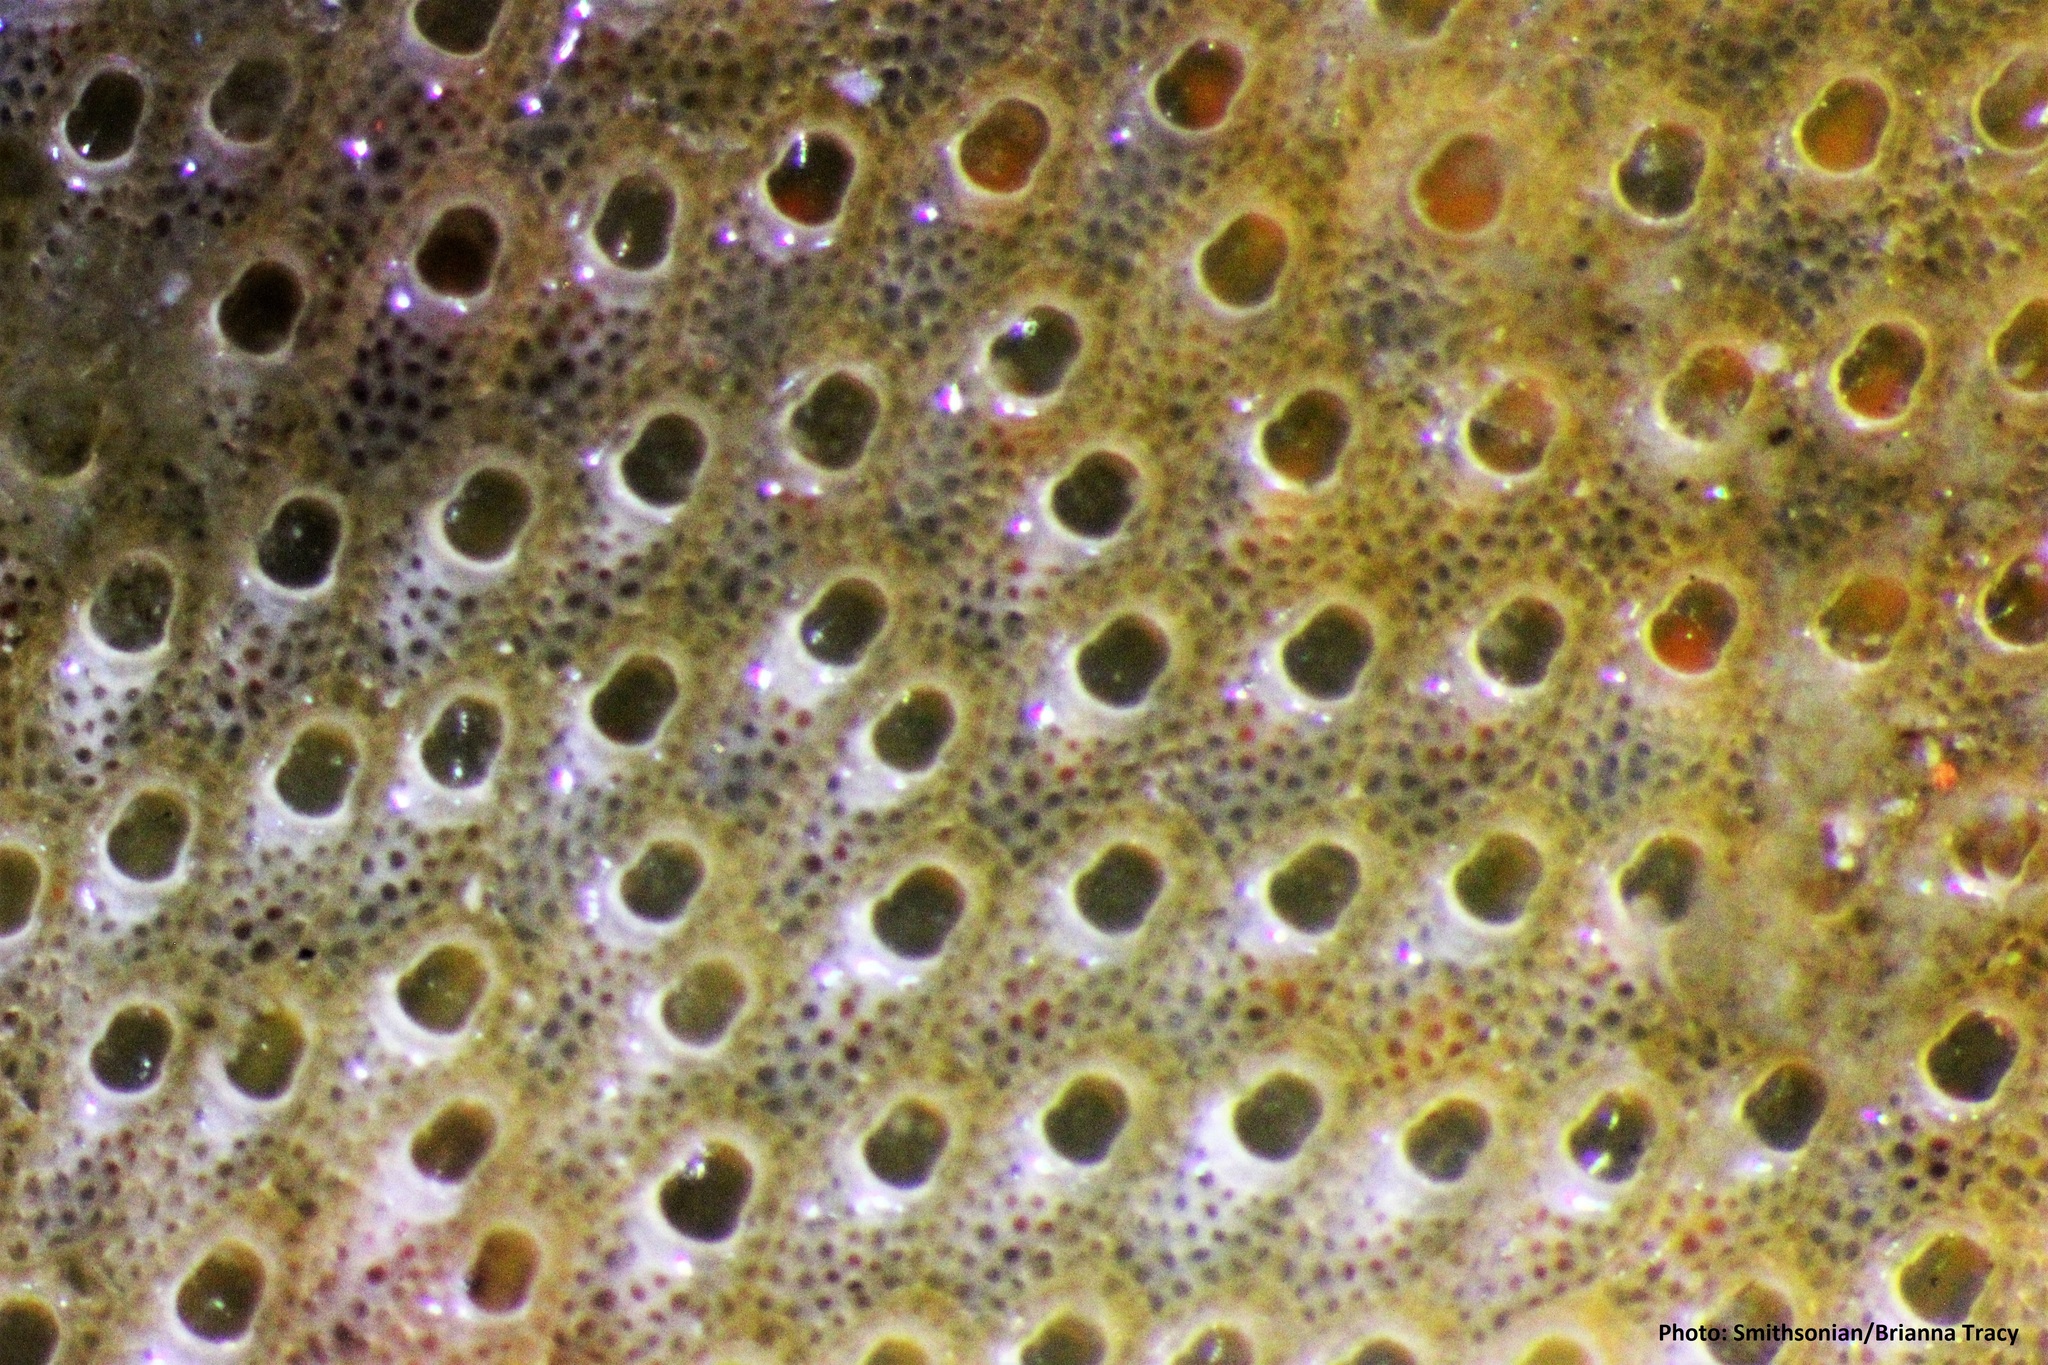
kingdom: Animalia
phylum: Bryozoa
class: Gymnolaemata
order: Cheilostomatida
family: Cryptosulidae
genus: Cryptosula
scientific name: Cryptosula pallasiana
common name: Red crust
